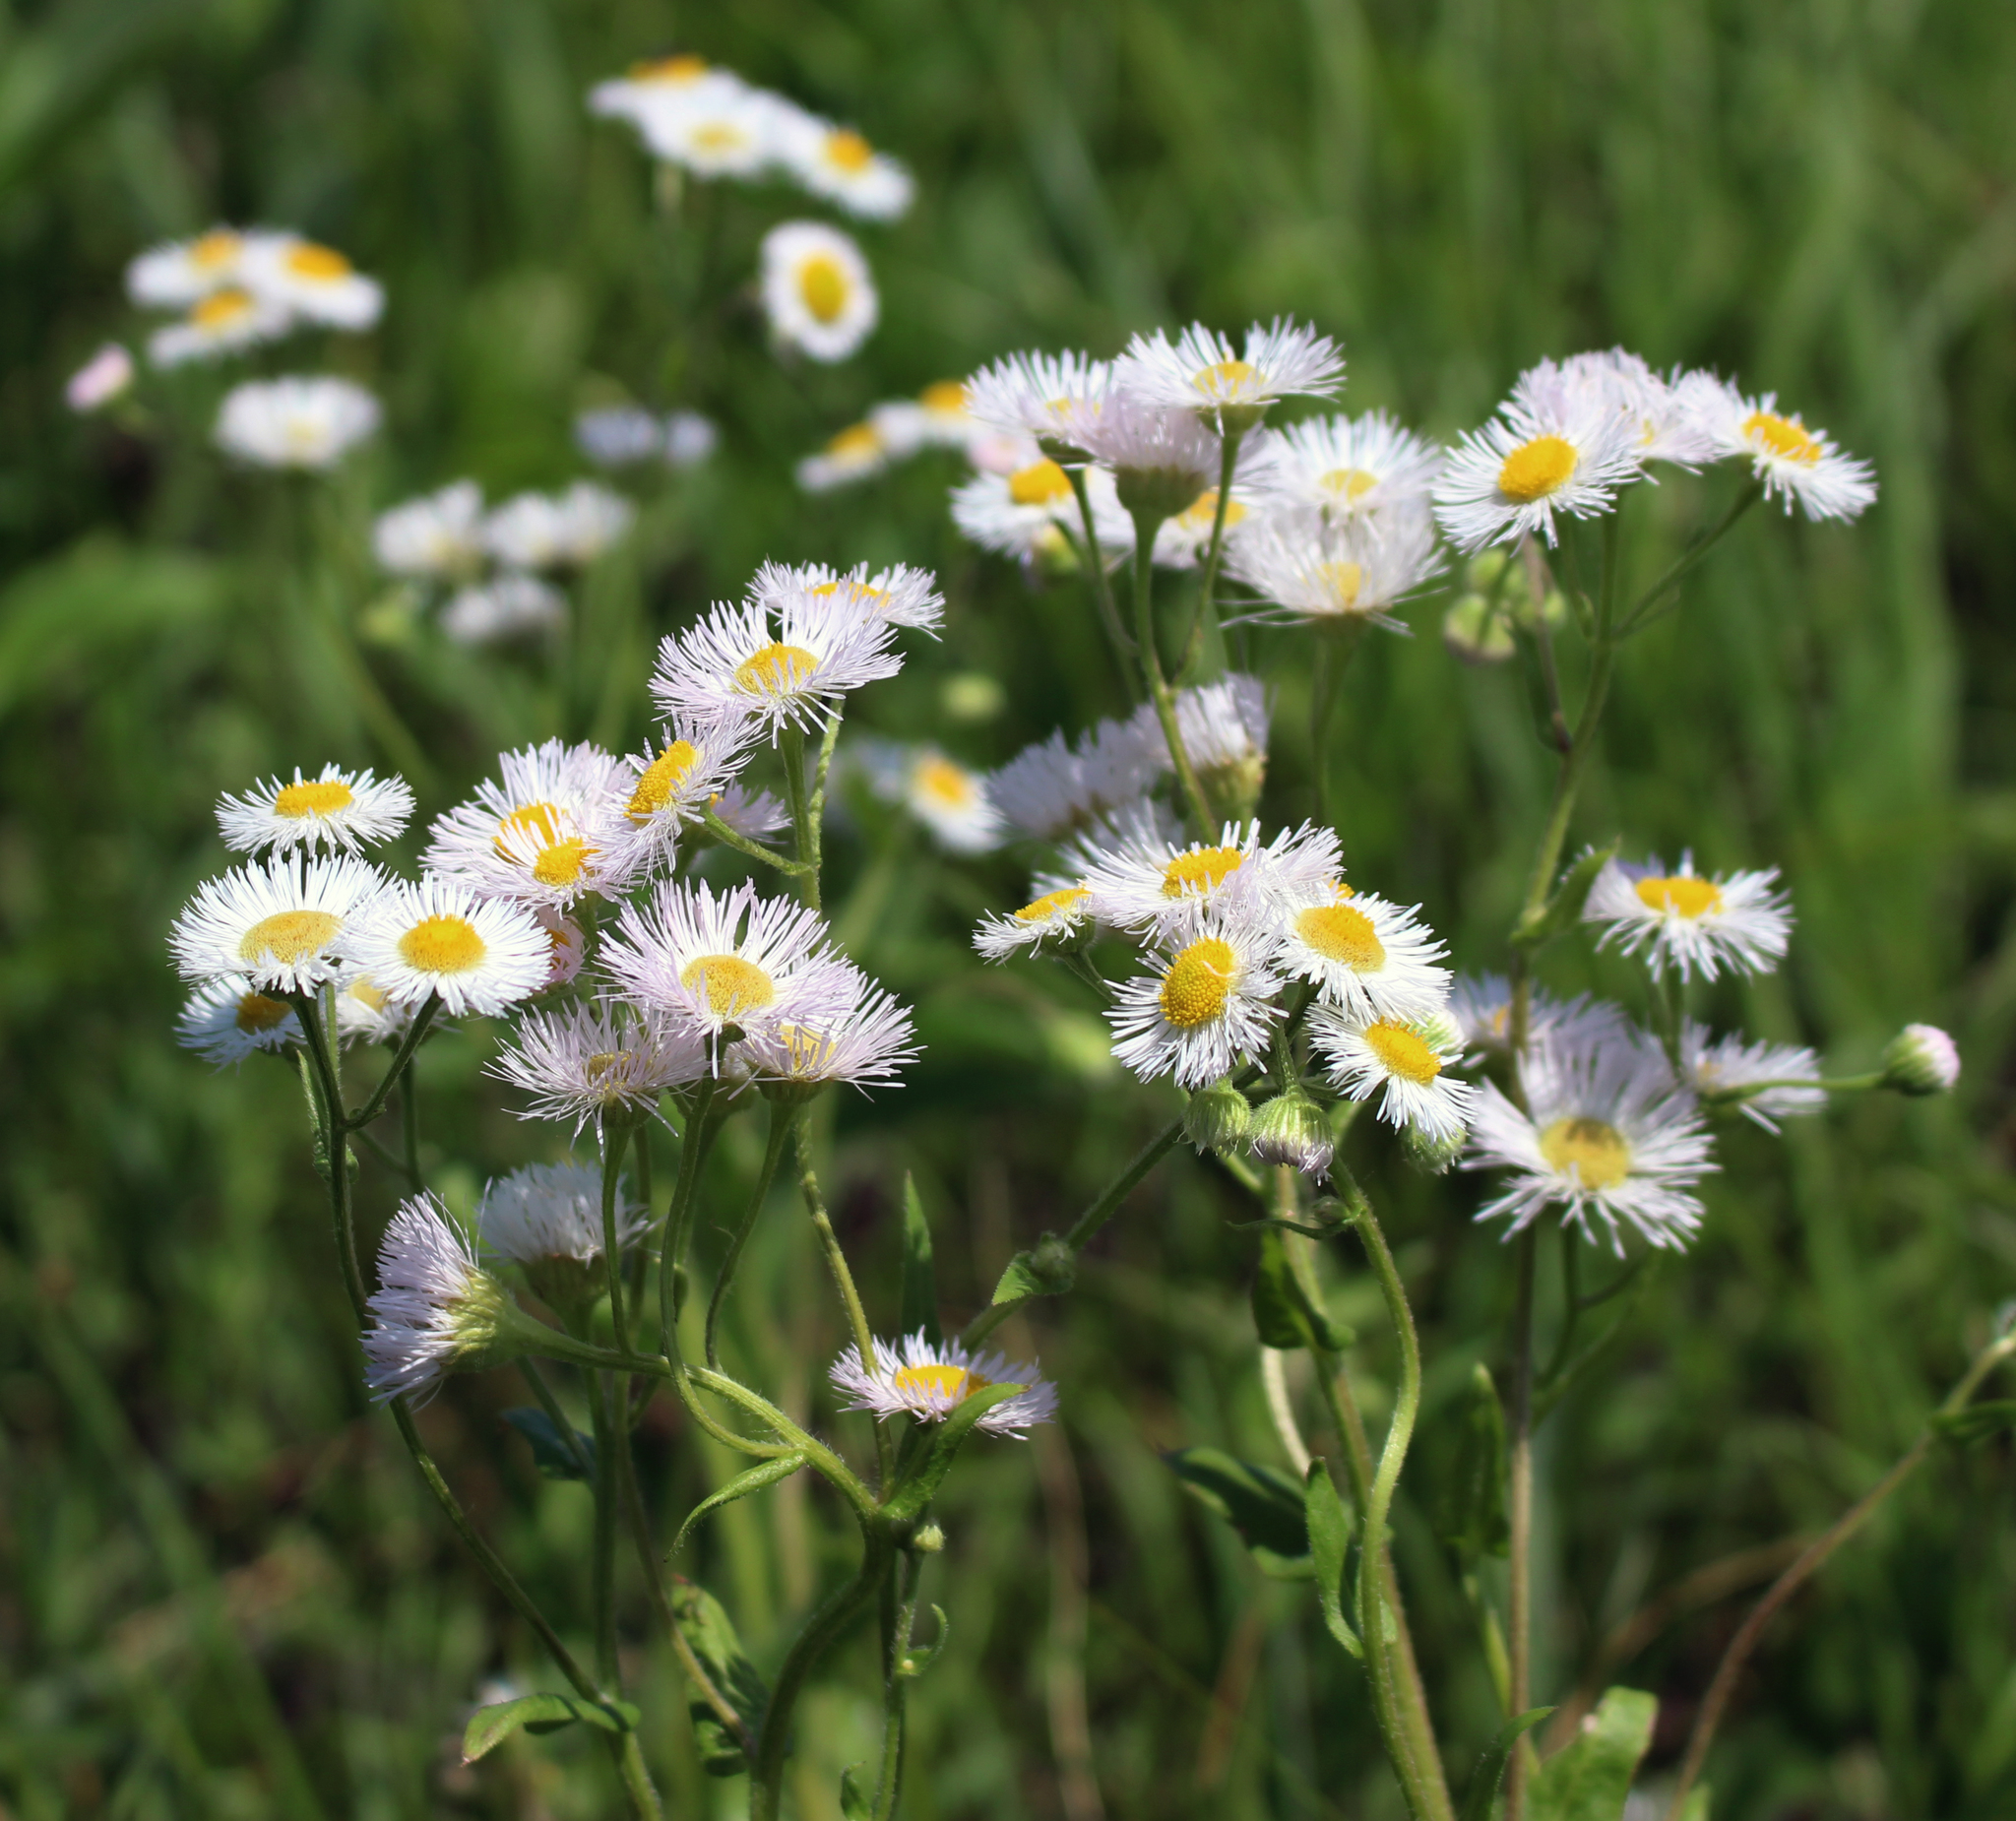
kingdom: Plantae
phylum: Tracheophyta
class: Magnoliopsida
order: Asterales
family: Asteraceae
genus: Erigeron
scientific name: Erigeron philadelphicus
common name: Robin's-plantain
